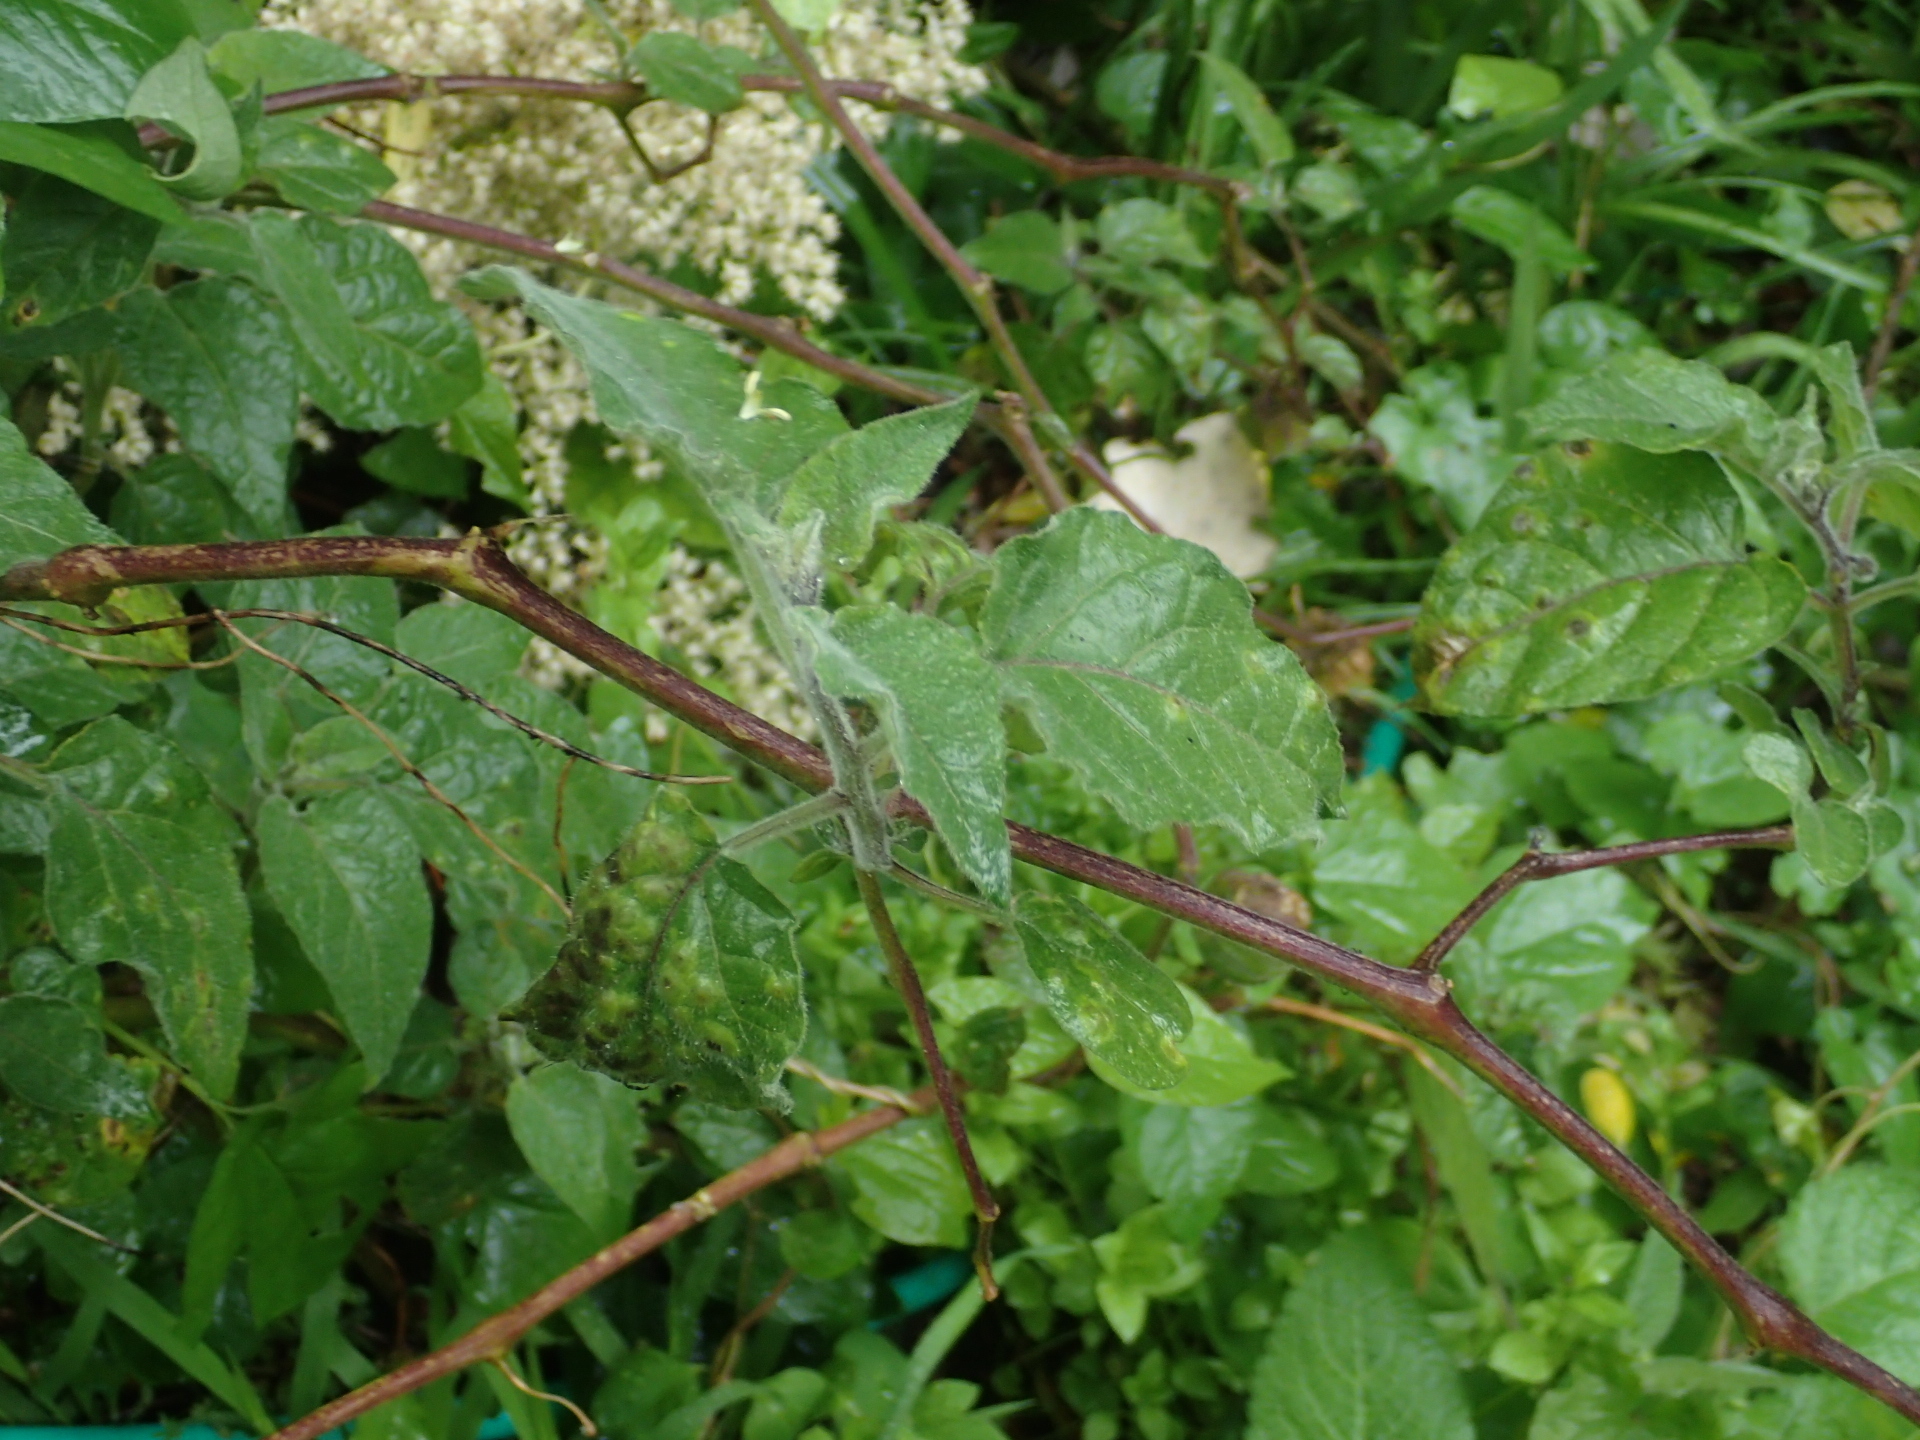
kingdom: Plantae
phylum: Tracheophyta
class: Magnoliopsida
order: Solanales
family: Solanaceae
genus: Physalis
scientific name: Physalis peruviana
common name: Cape-gooseberry
